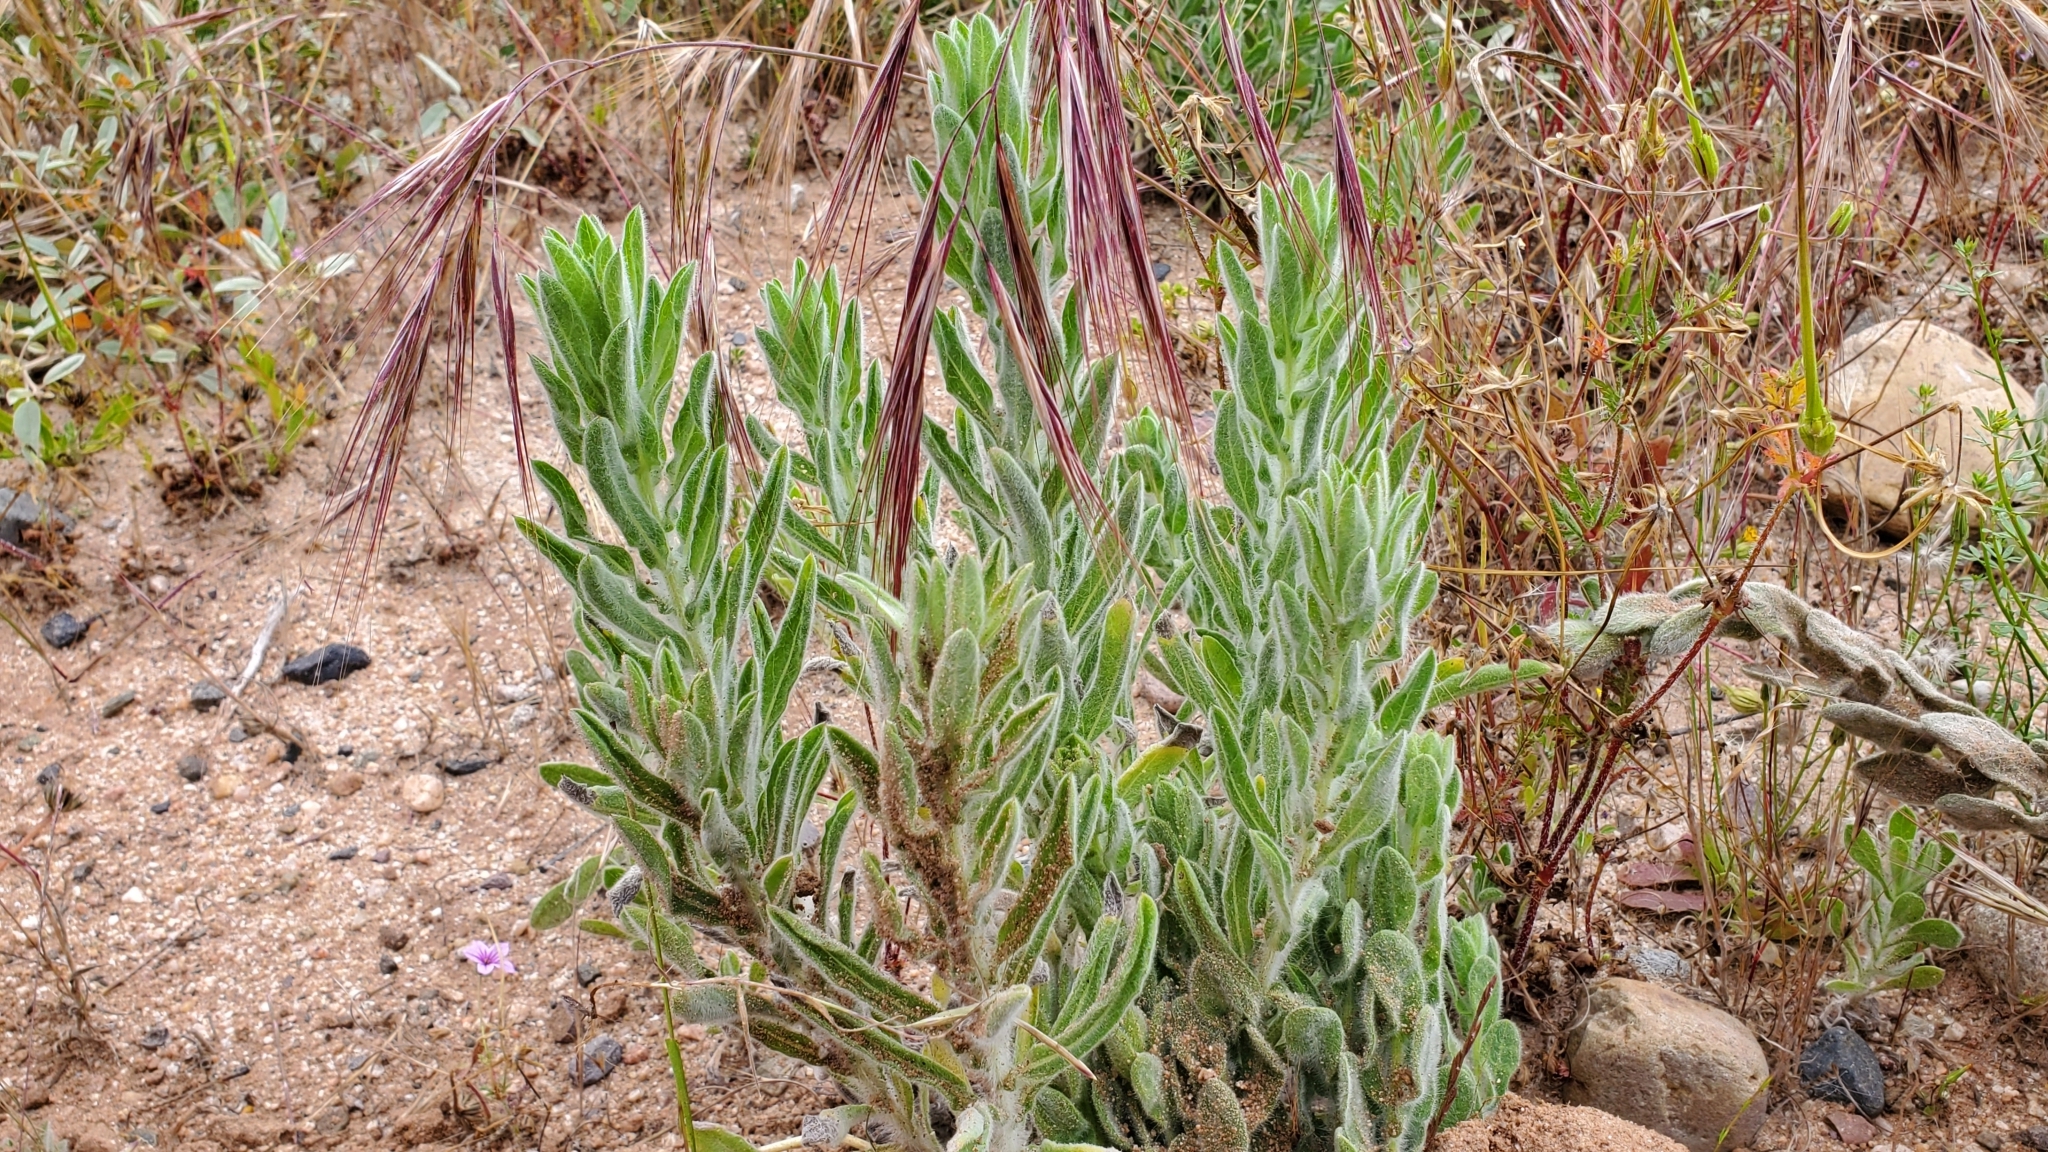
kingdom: Plantae
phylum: Tracheophyta
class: Magnoliopsida
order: Asterales
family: Asteraceae
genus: Heterotheca
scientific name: Heterotheca sessiliflora
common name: Sessile-flower golden-aster
